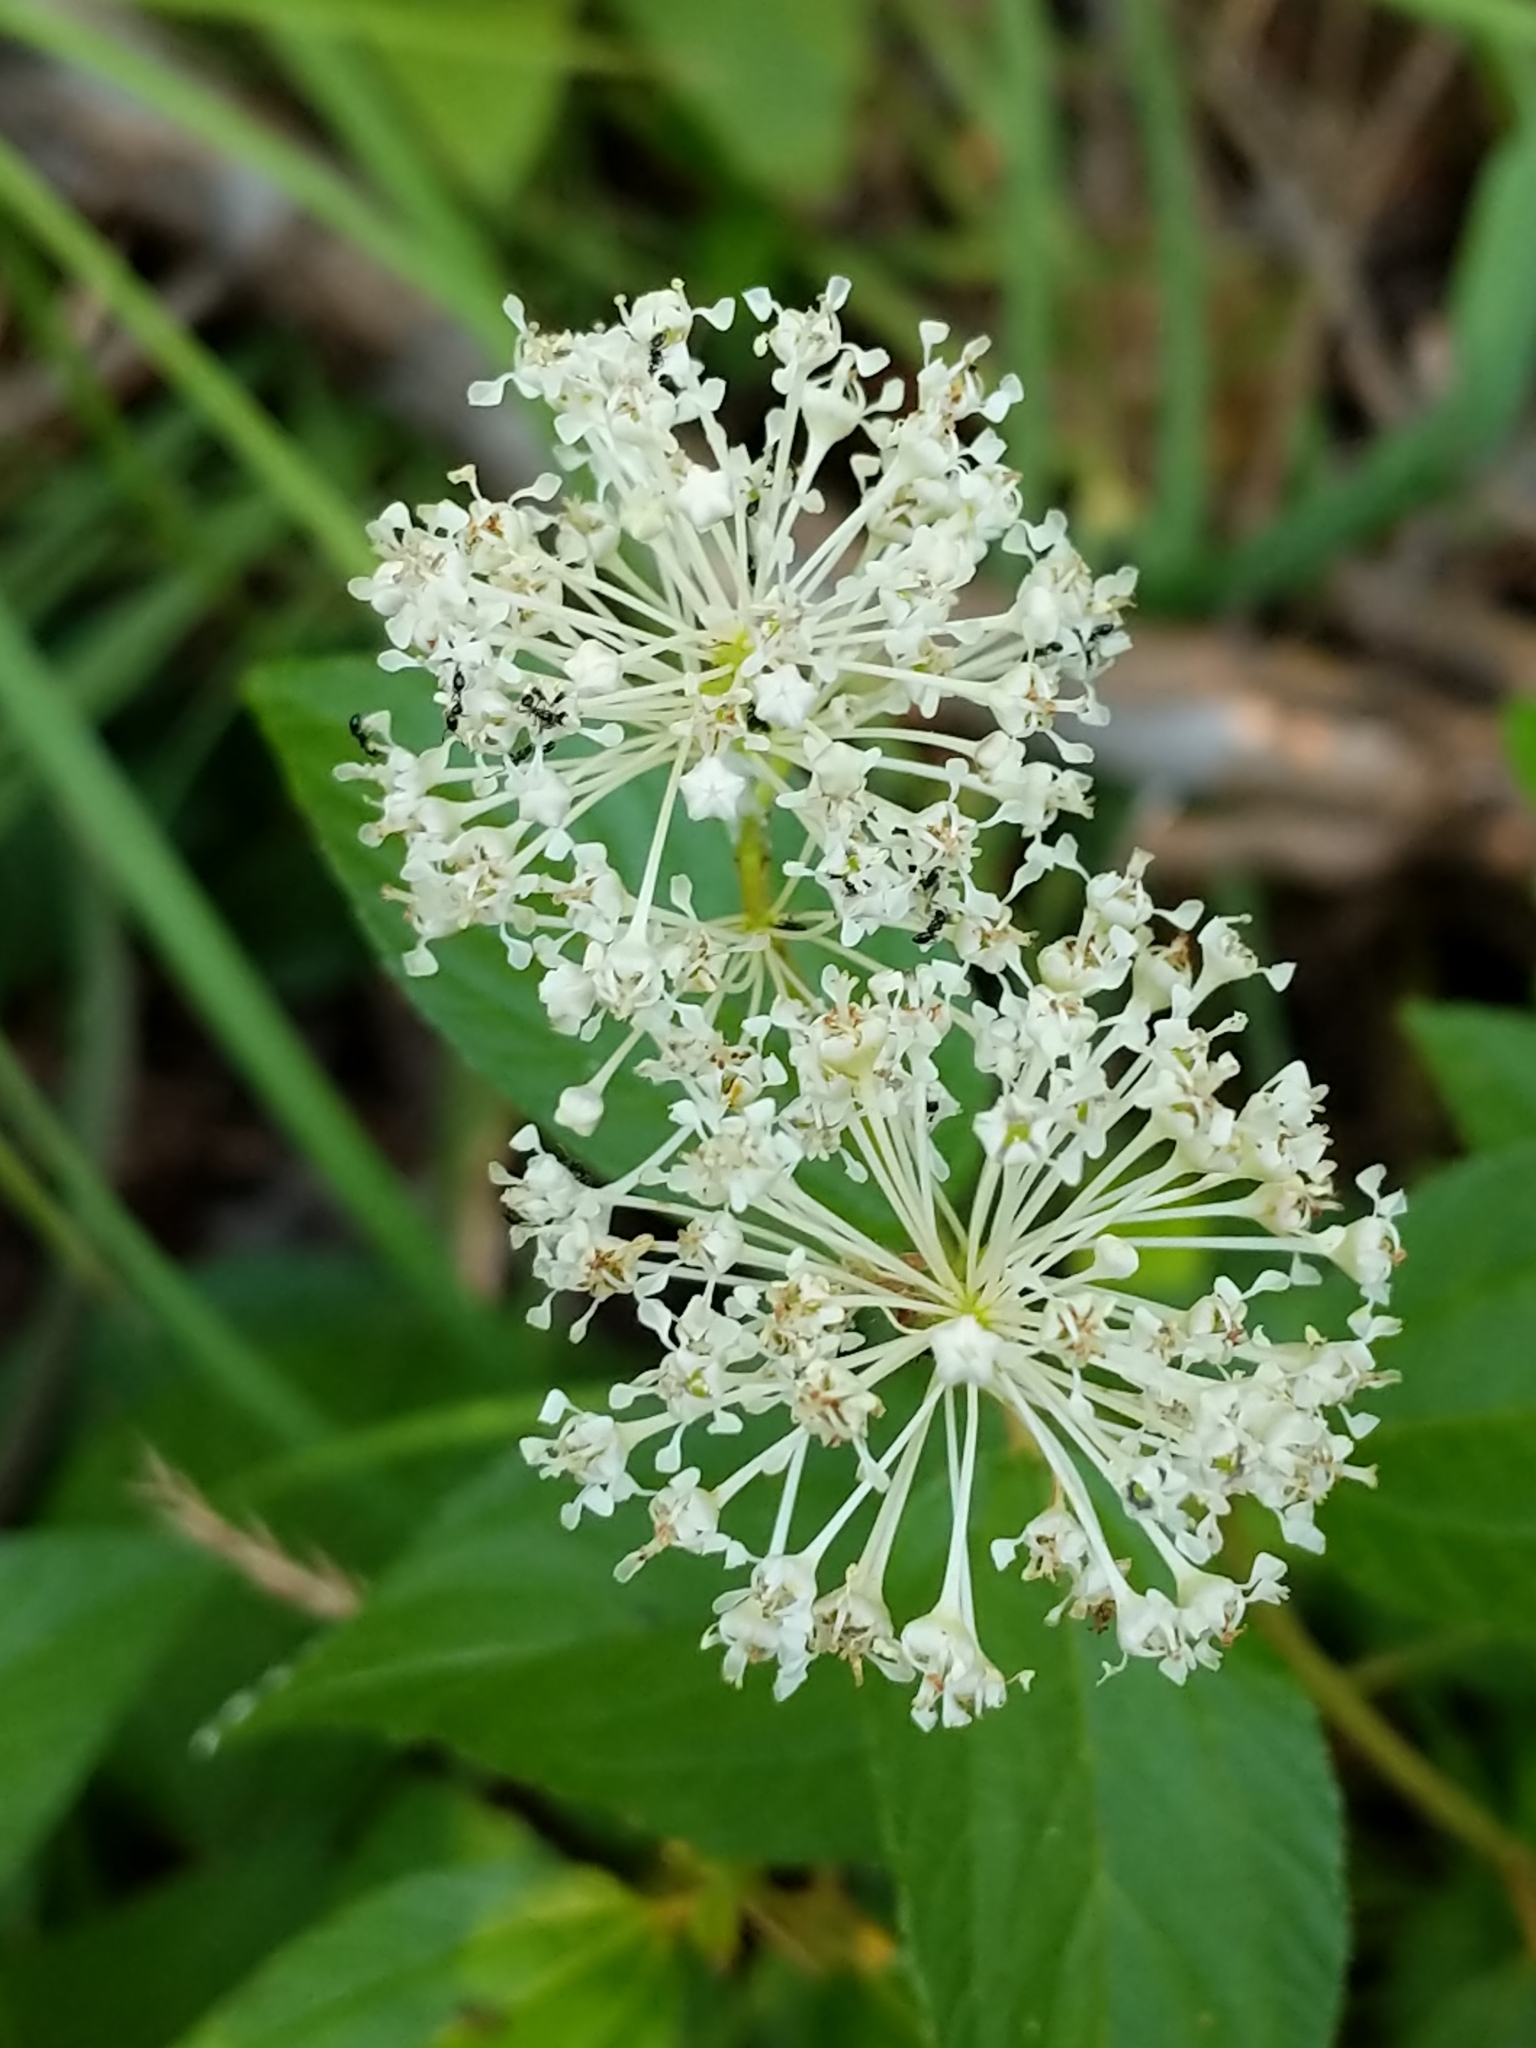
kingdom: Plantae
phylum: Tracheophyta
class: Magnoliopsida
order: Rosales
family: Rhamnaceae
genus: Ceanothus
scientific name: Ceanothus americanus
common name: Redroot
